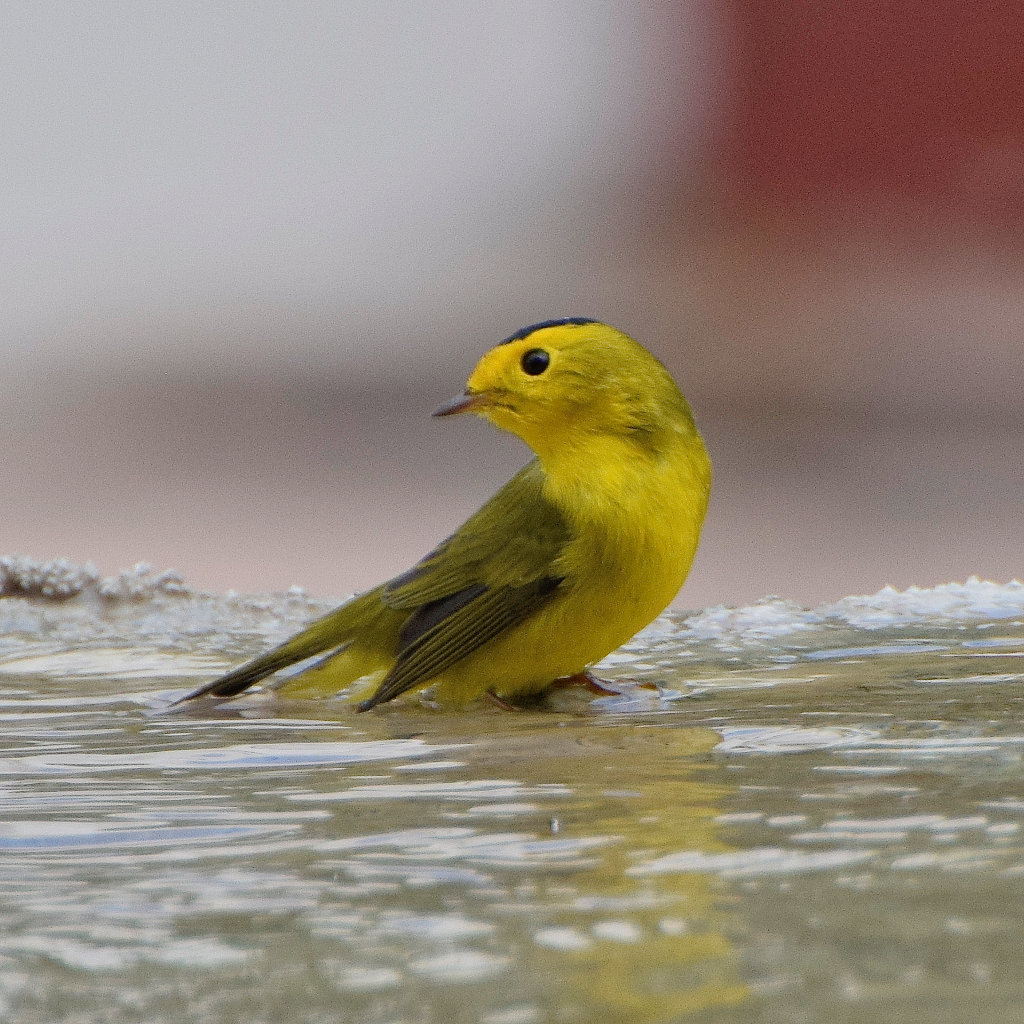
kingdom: Animalia
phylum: Chordata
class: Aves
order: Passeriformes
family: Parulidae
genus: Cardellina
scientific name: Cardellina pusilla
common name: Wilson's warbler
